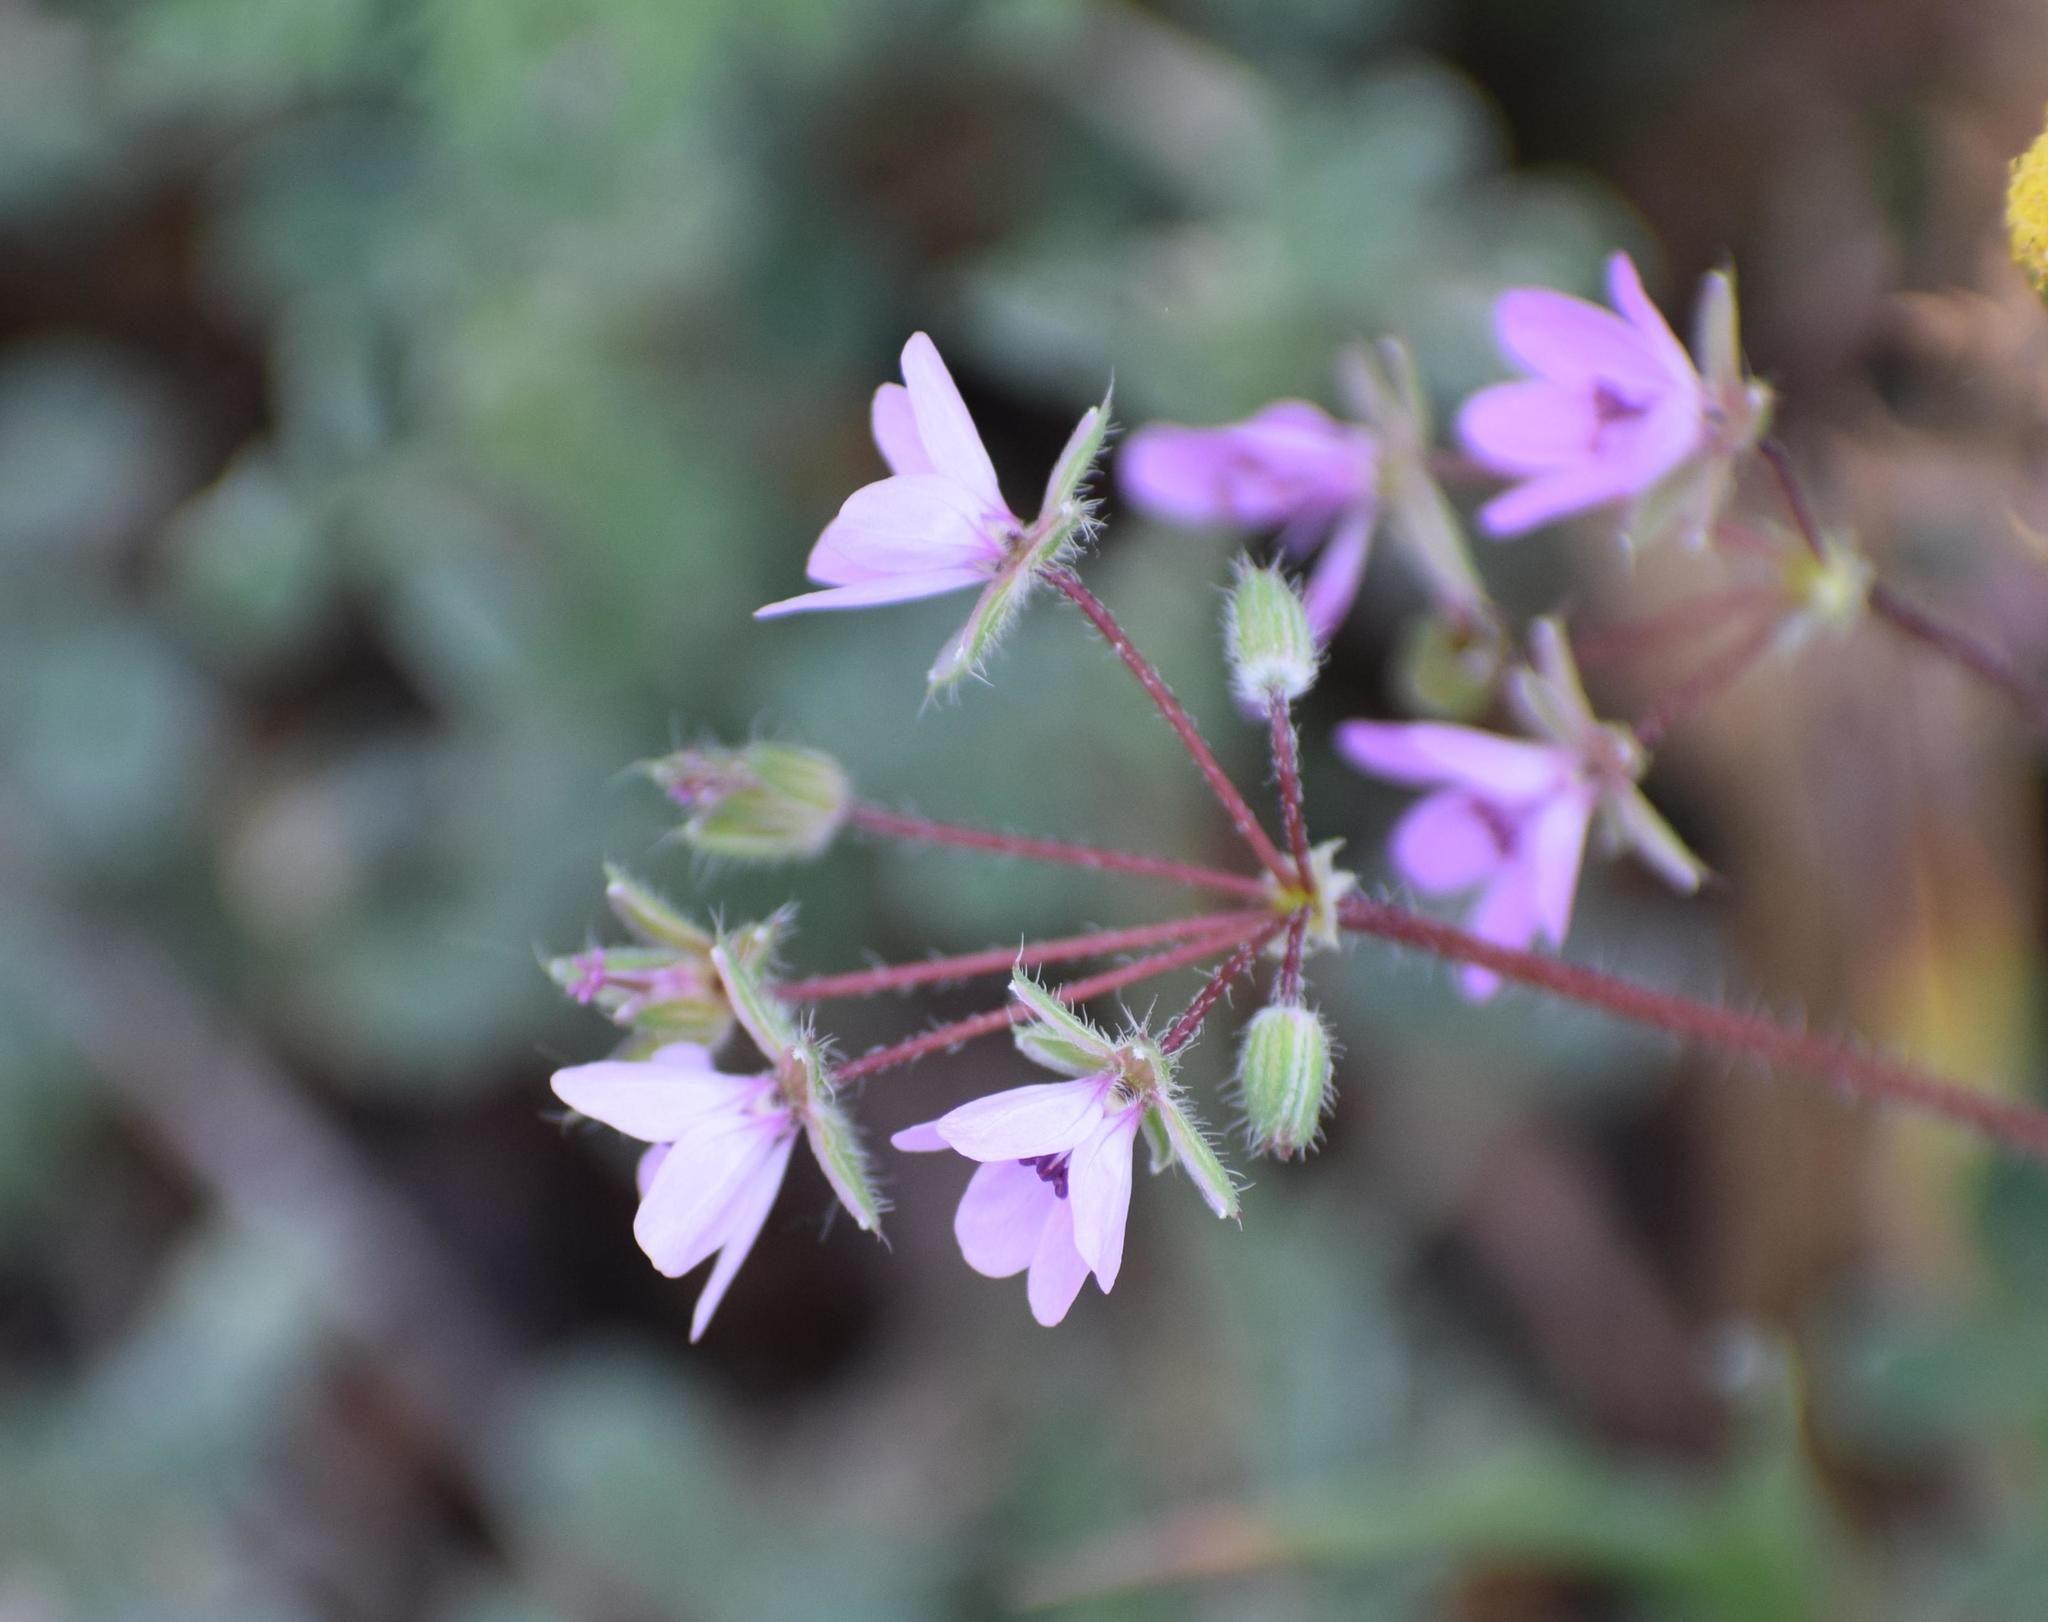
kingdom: Plantae
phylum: Tracheophyta
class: Magnoliopsida
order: Geraniales
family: Geraniaceae
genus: Erodium
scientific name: Erodium cicutarium
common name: Common stork's-bill
